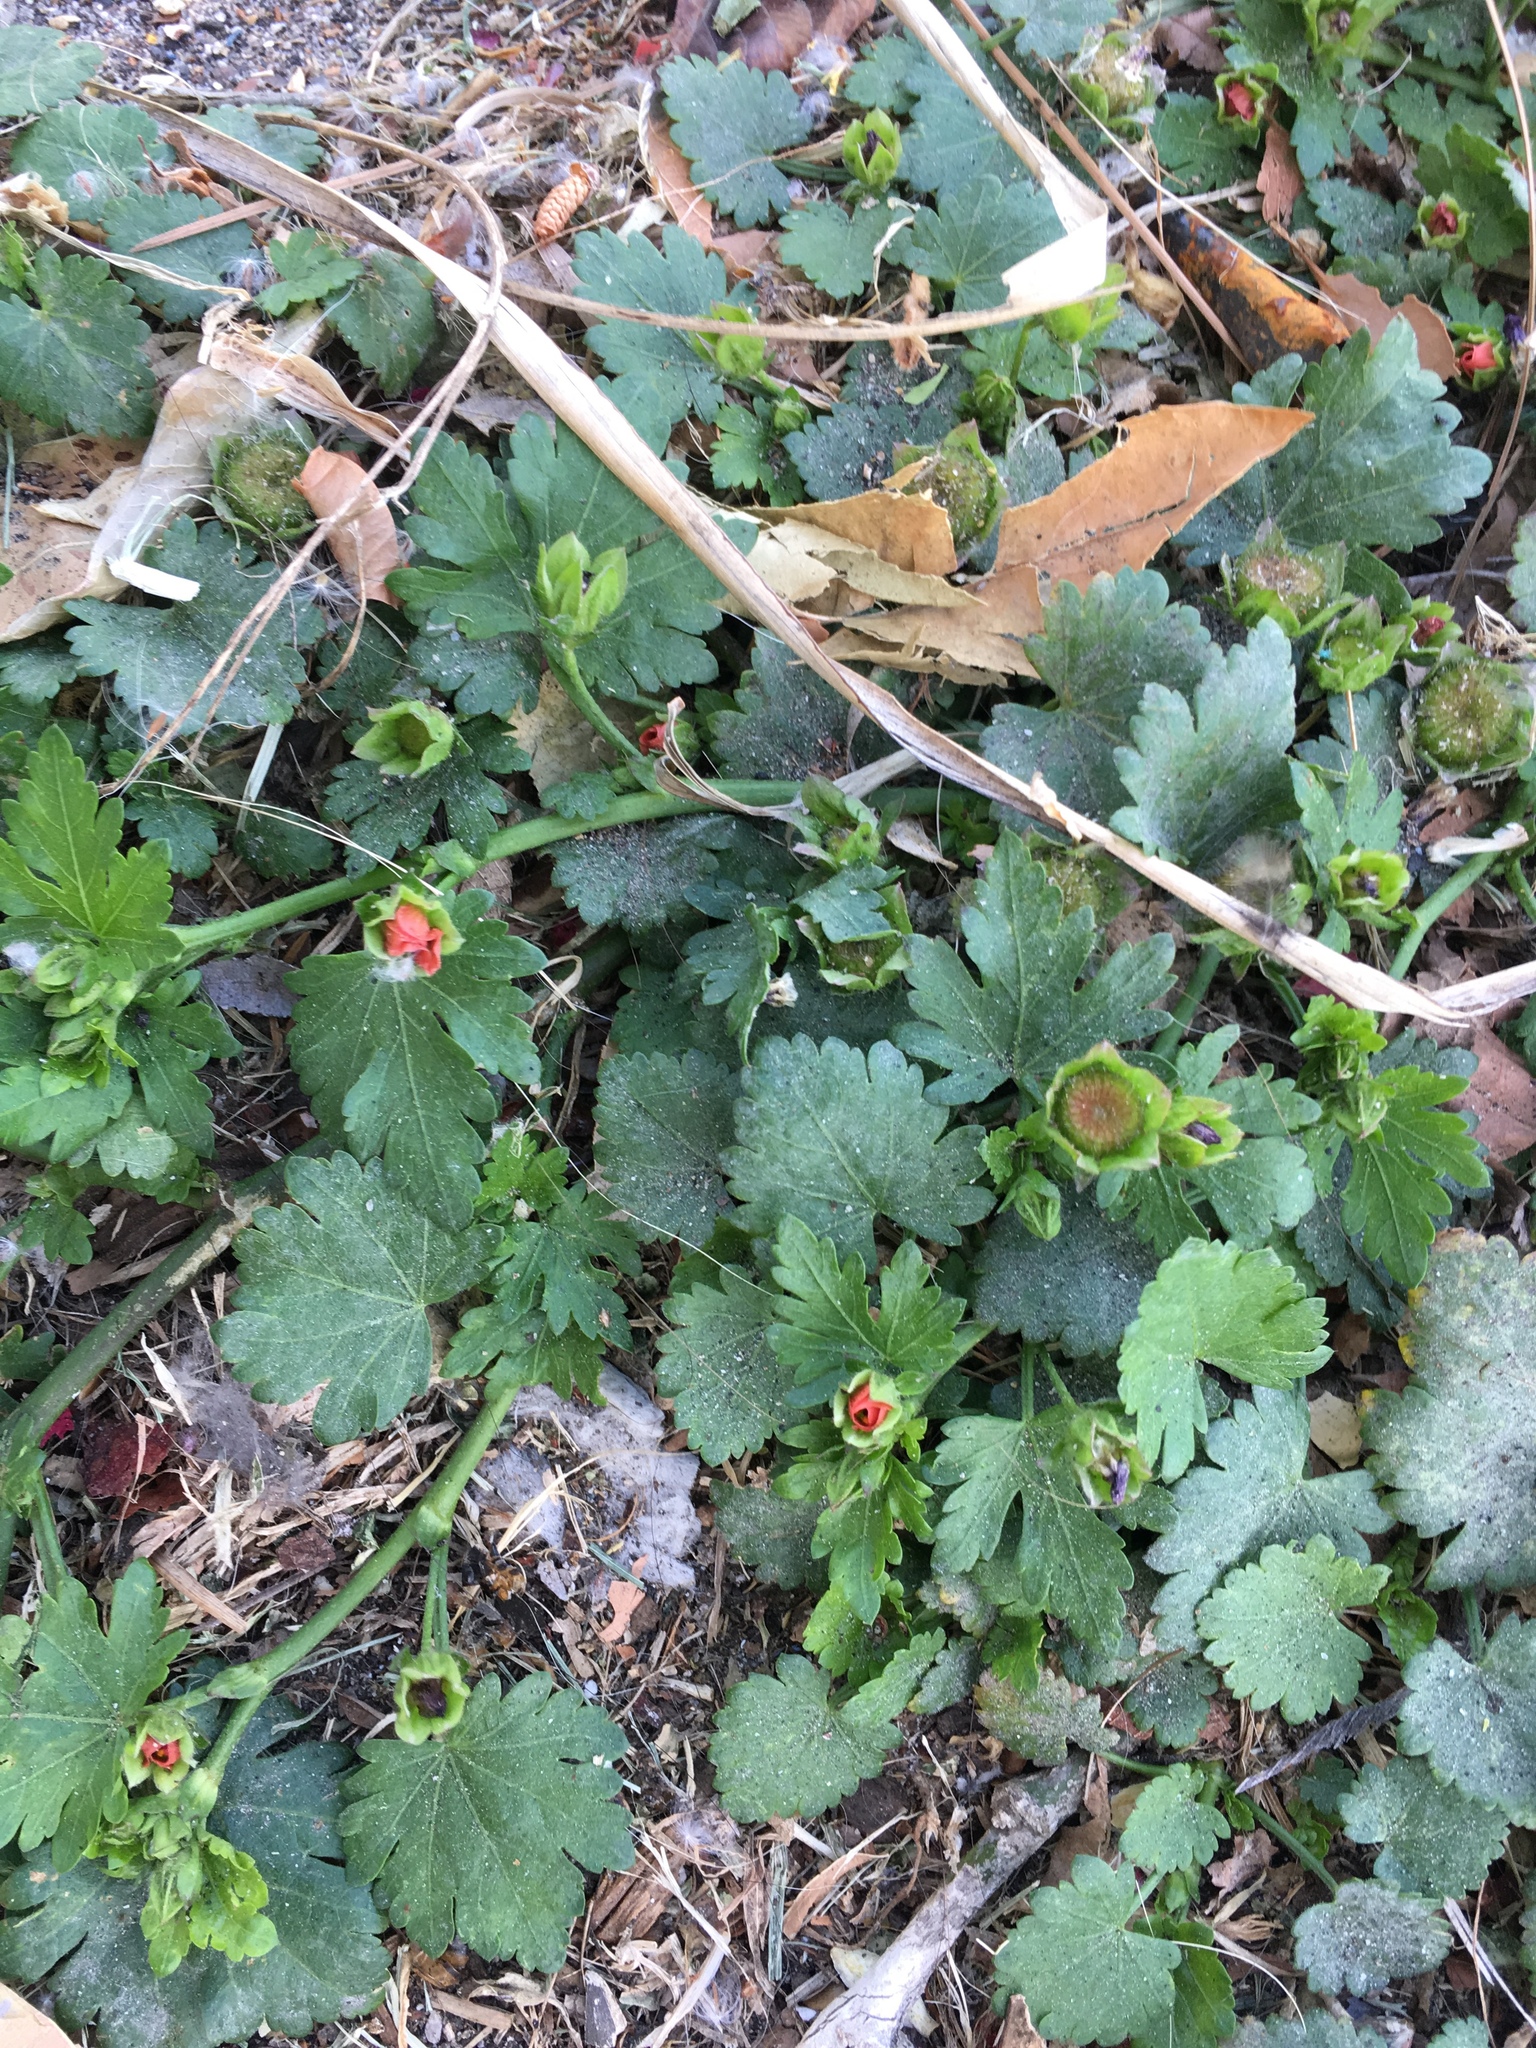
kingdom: Plantae
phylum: Tracheophyta
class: Magnoliopsida
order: Malvales
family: Malvaceae
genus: Modiola
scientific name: Modiola caroliniana
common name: Carolina bristlemallow
